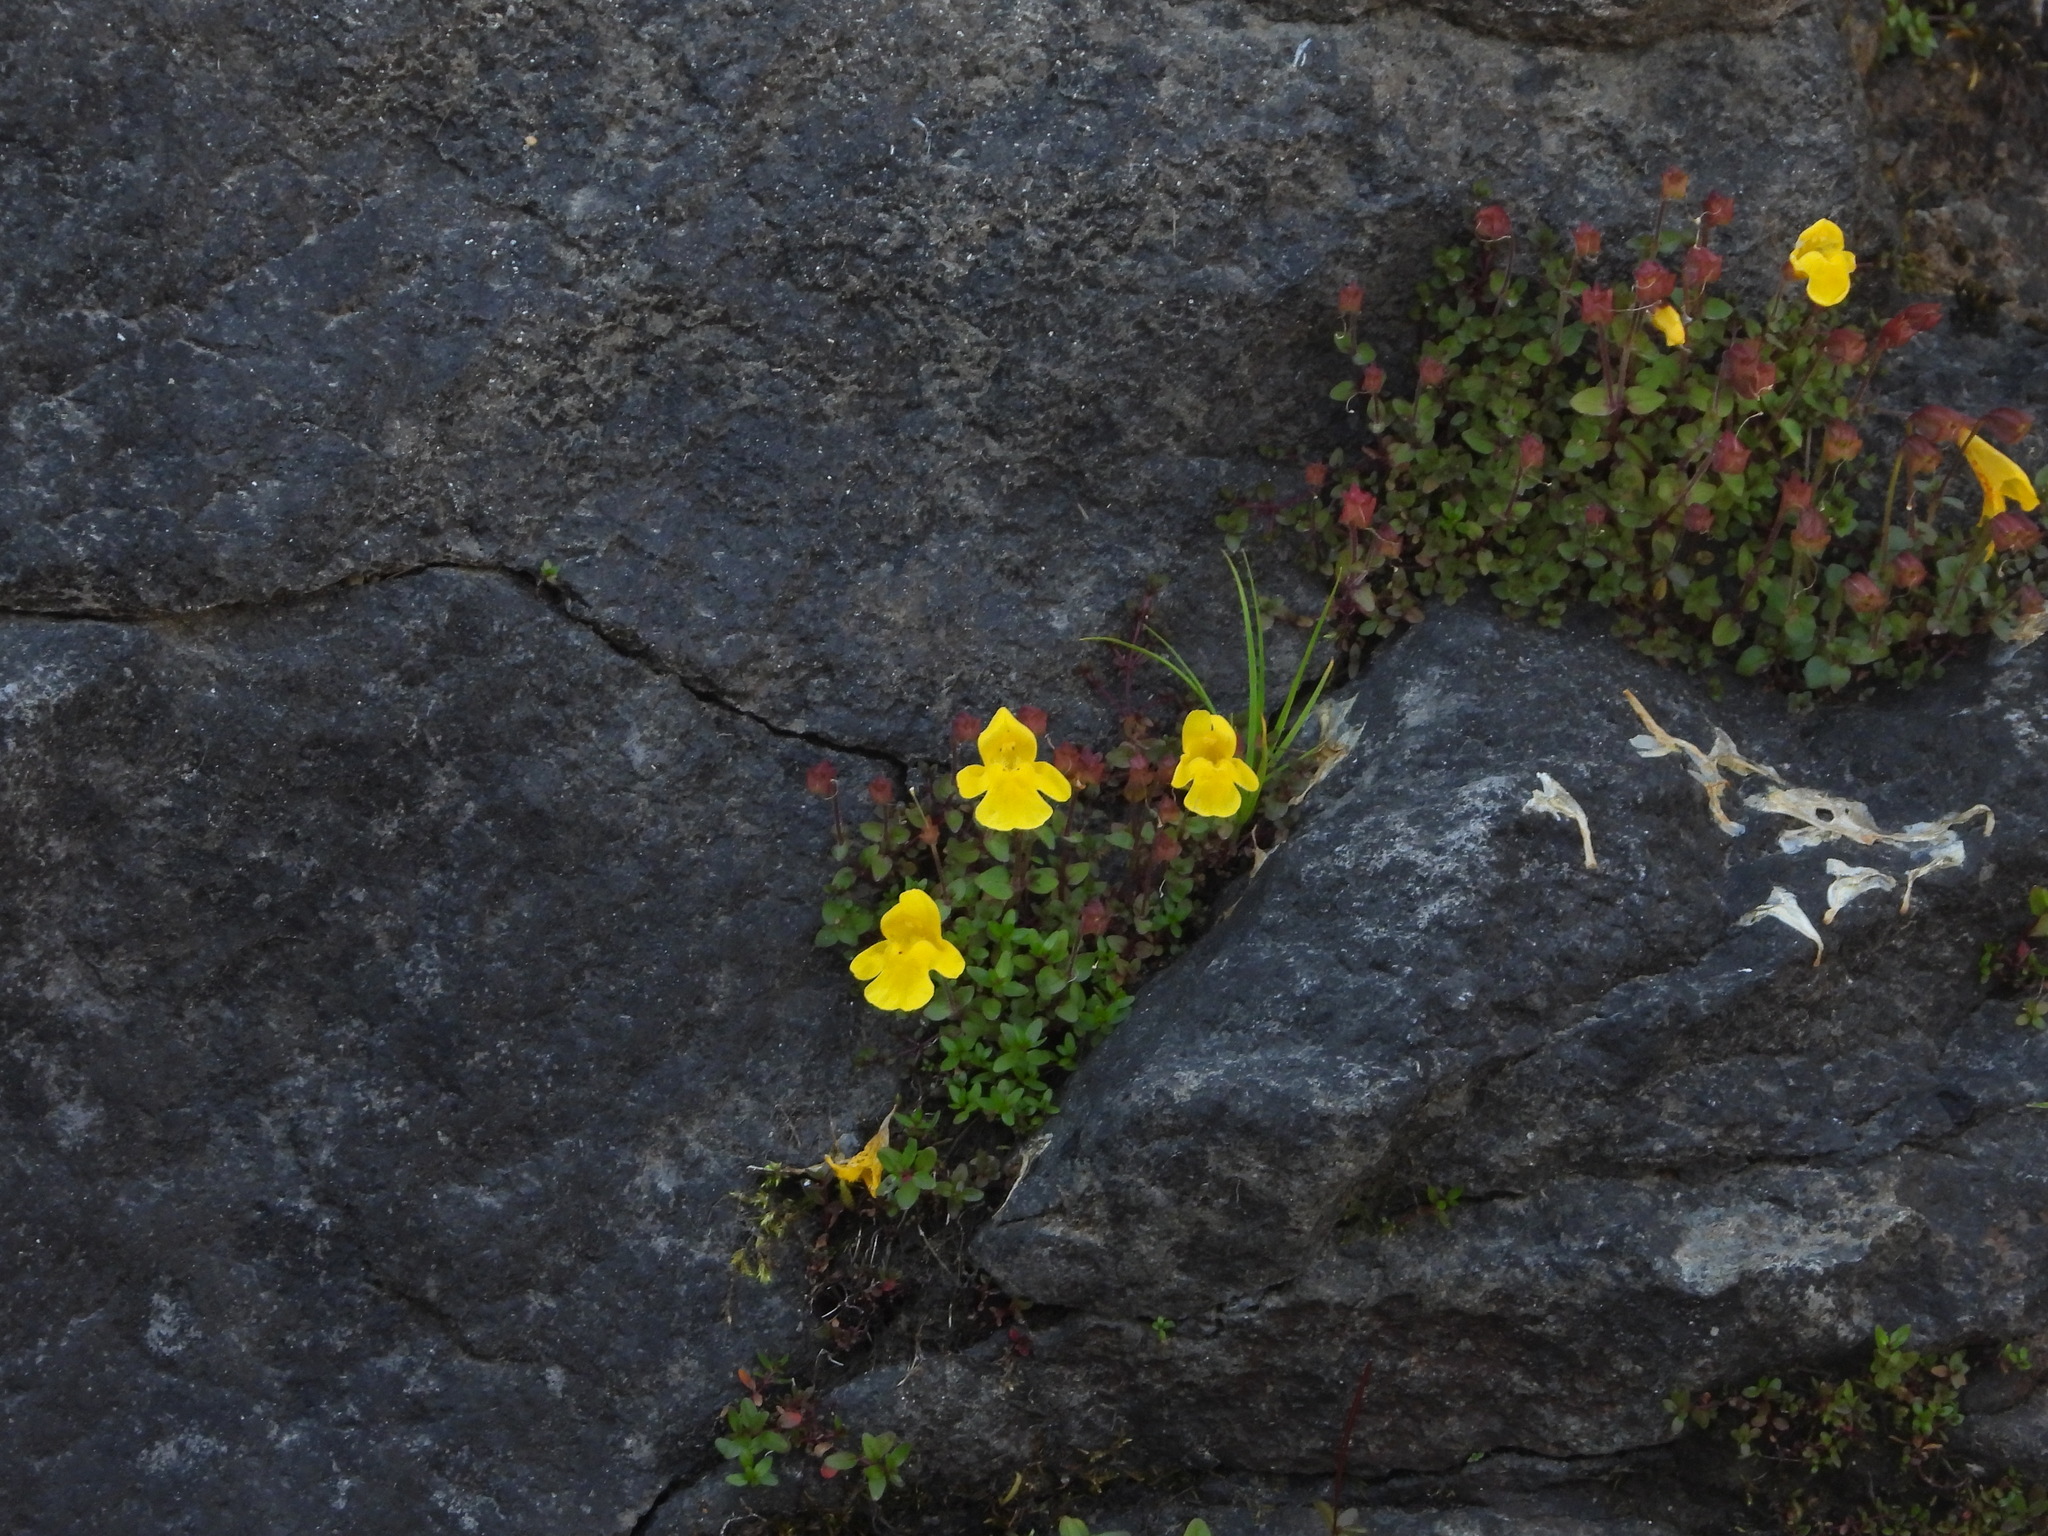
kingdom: Plantae
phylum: Tracheophyta
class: Magnoliopsida
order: Lamiales
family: Phrymaceae
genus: Erythranthe
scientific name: Erythranthe caespitosa
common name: Subalpine monkeyflower
